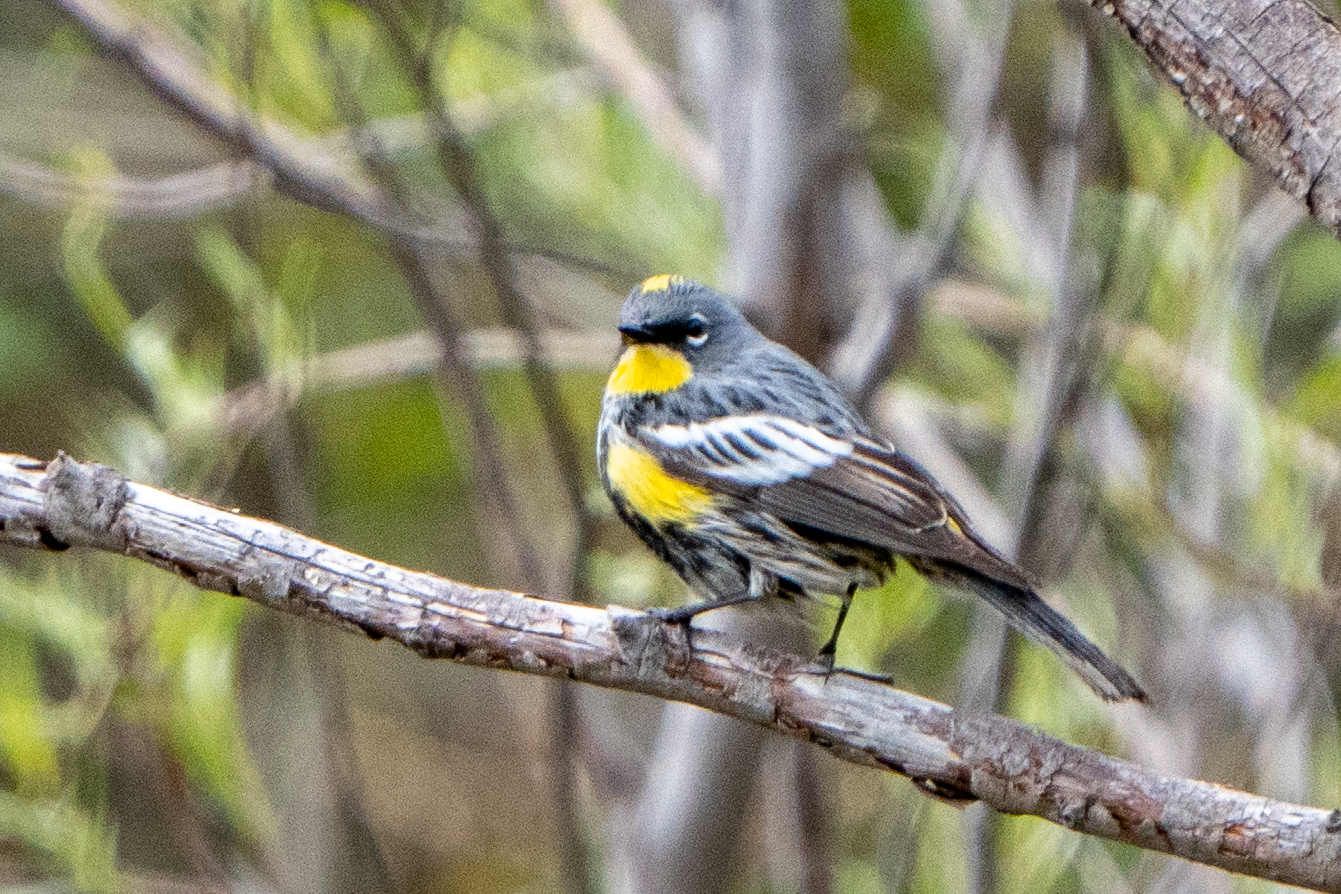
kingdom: Animalia
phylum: Chordata
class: Aves
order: Passeriformes
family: Parulidae
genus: Setophaga
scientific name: Setophaga auduboni
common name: Audubon's warbler
